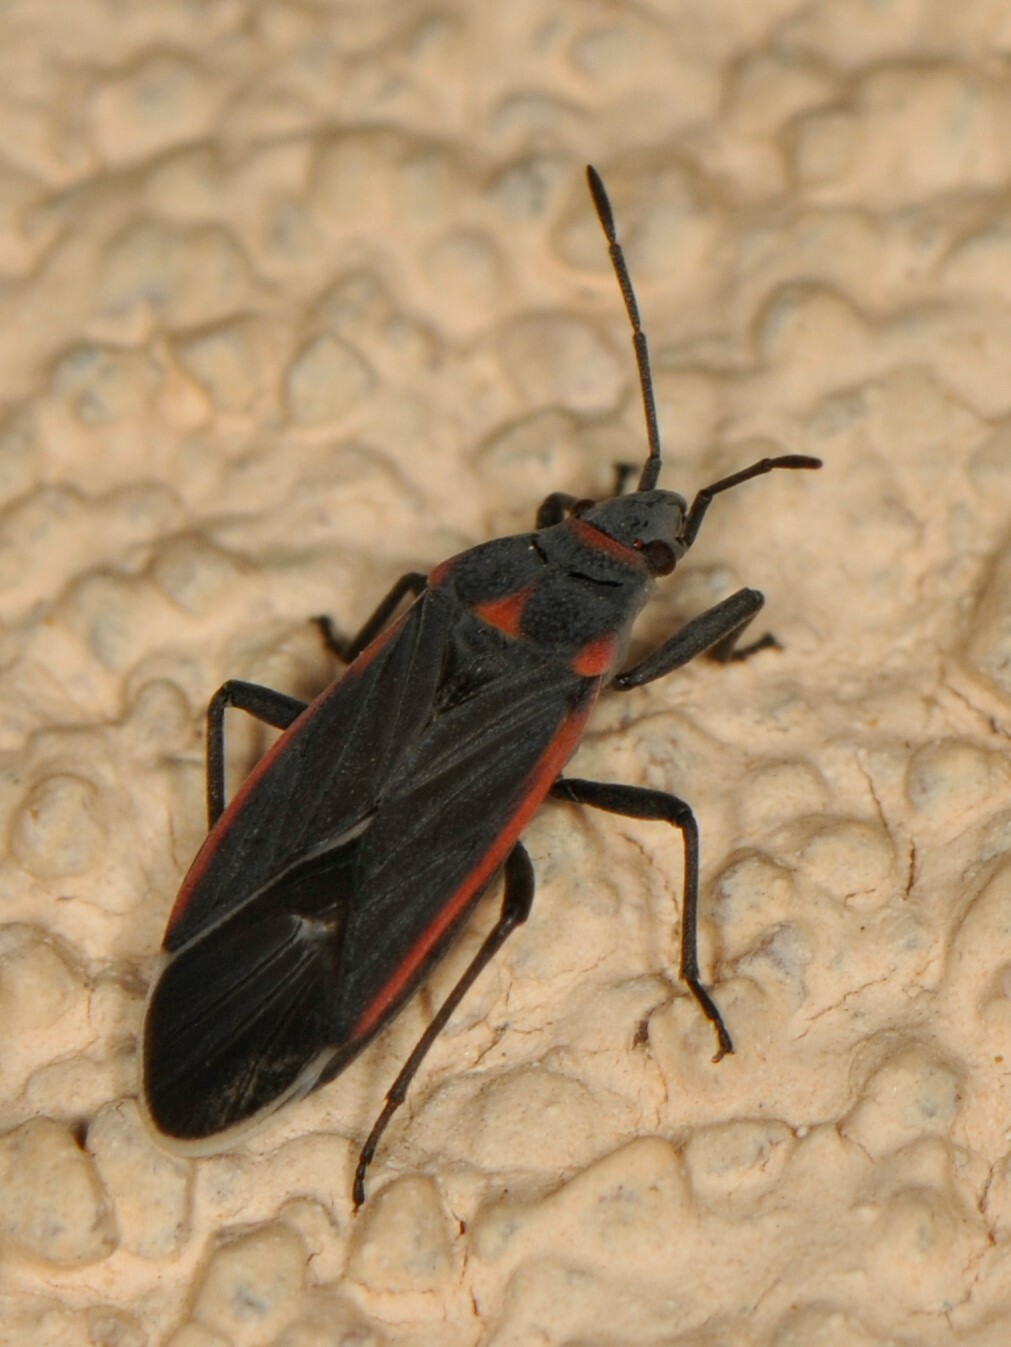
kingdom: Animalia
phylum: Arthropoda
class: Insecta
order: Hemiptera
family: Lygaeidae
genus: Melacoryphus
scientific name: Melacoryphus lateralis
